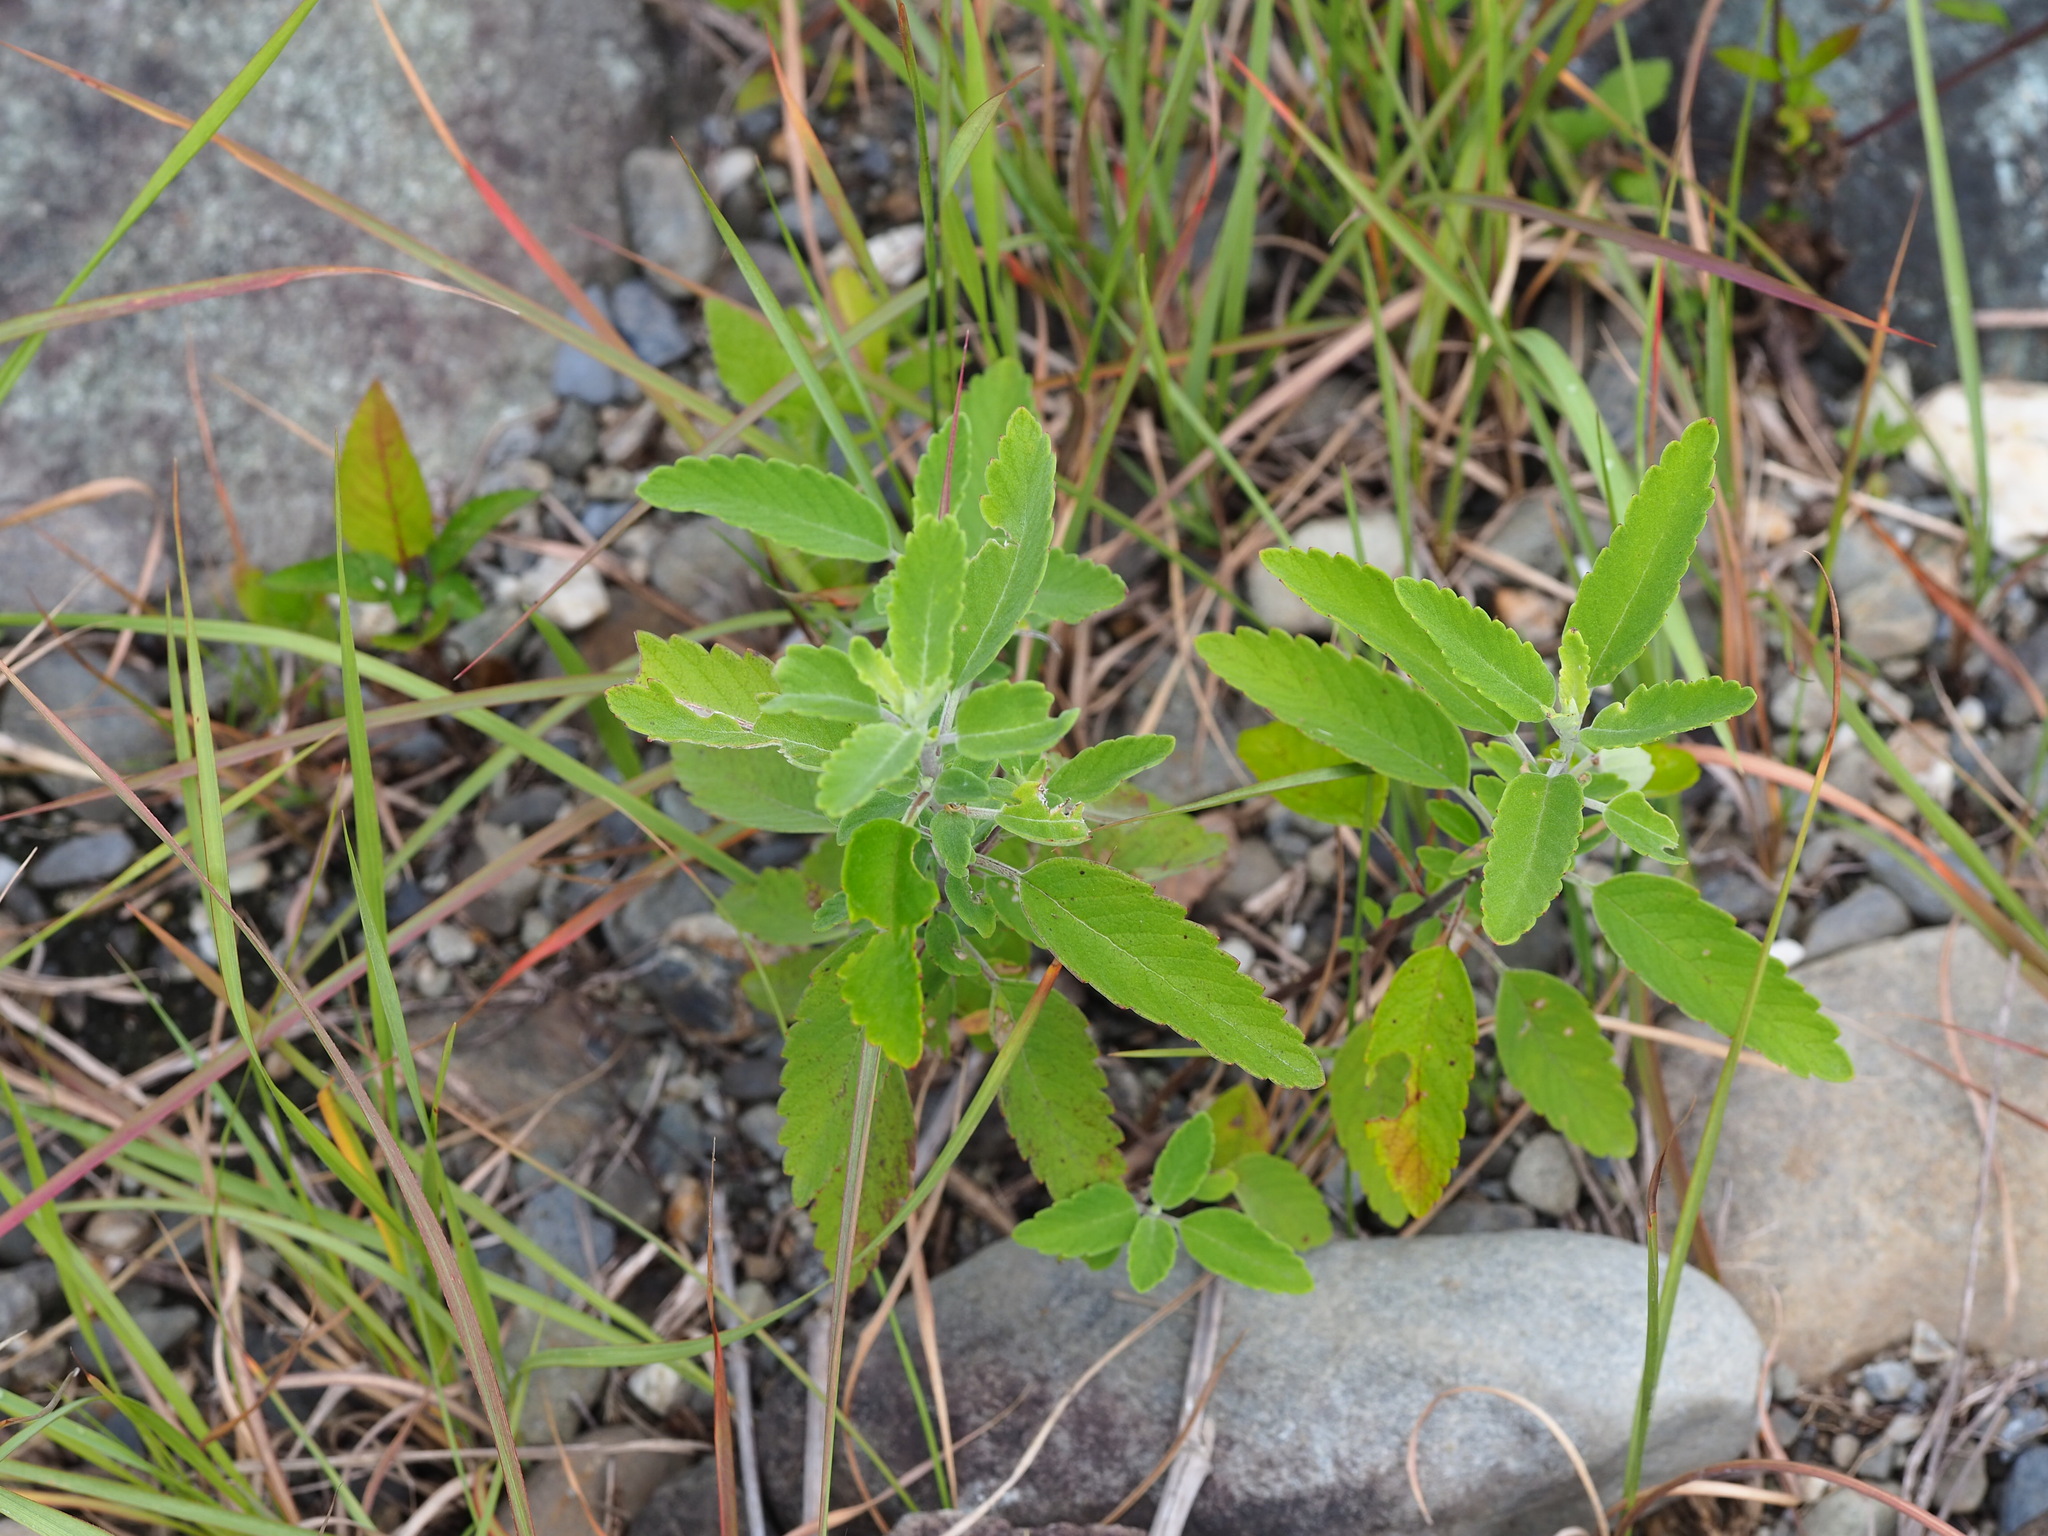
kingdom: Plantae
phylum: Tracheophyta
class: Magnoliopsida
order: Lamiales
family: Lamiaceae
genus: Caryopteris
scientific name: Caryopteris incana
